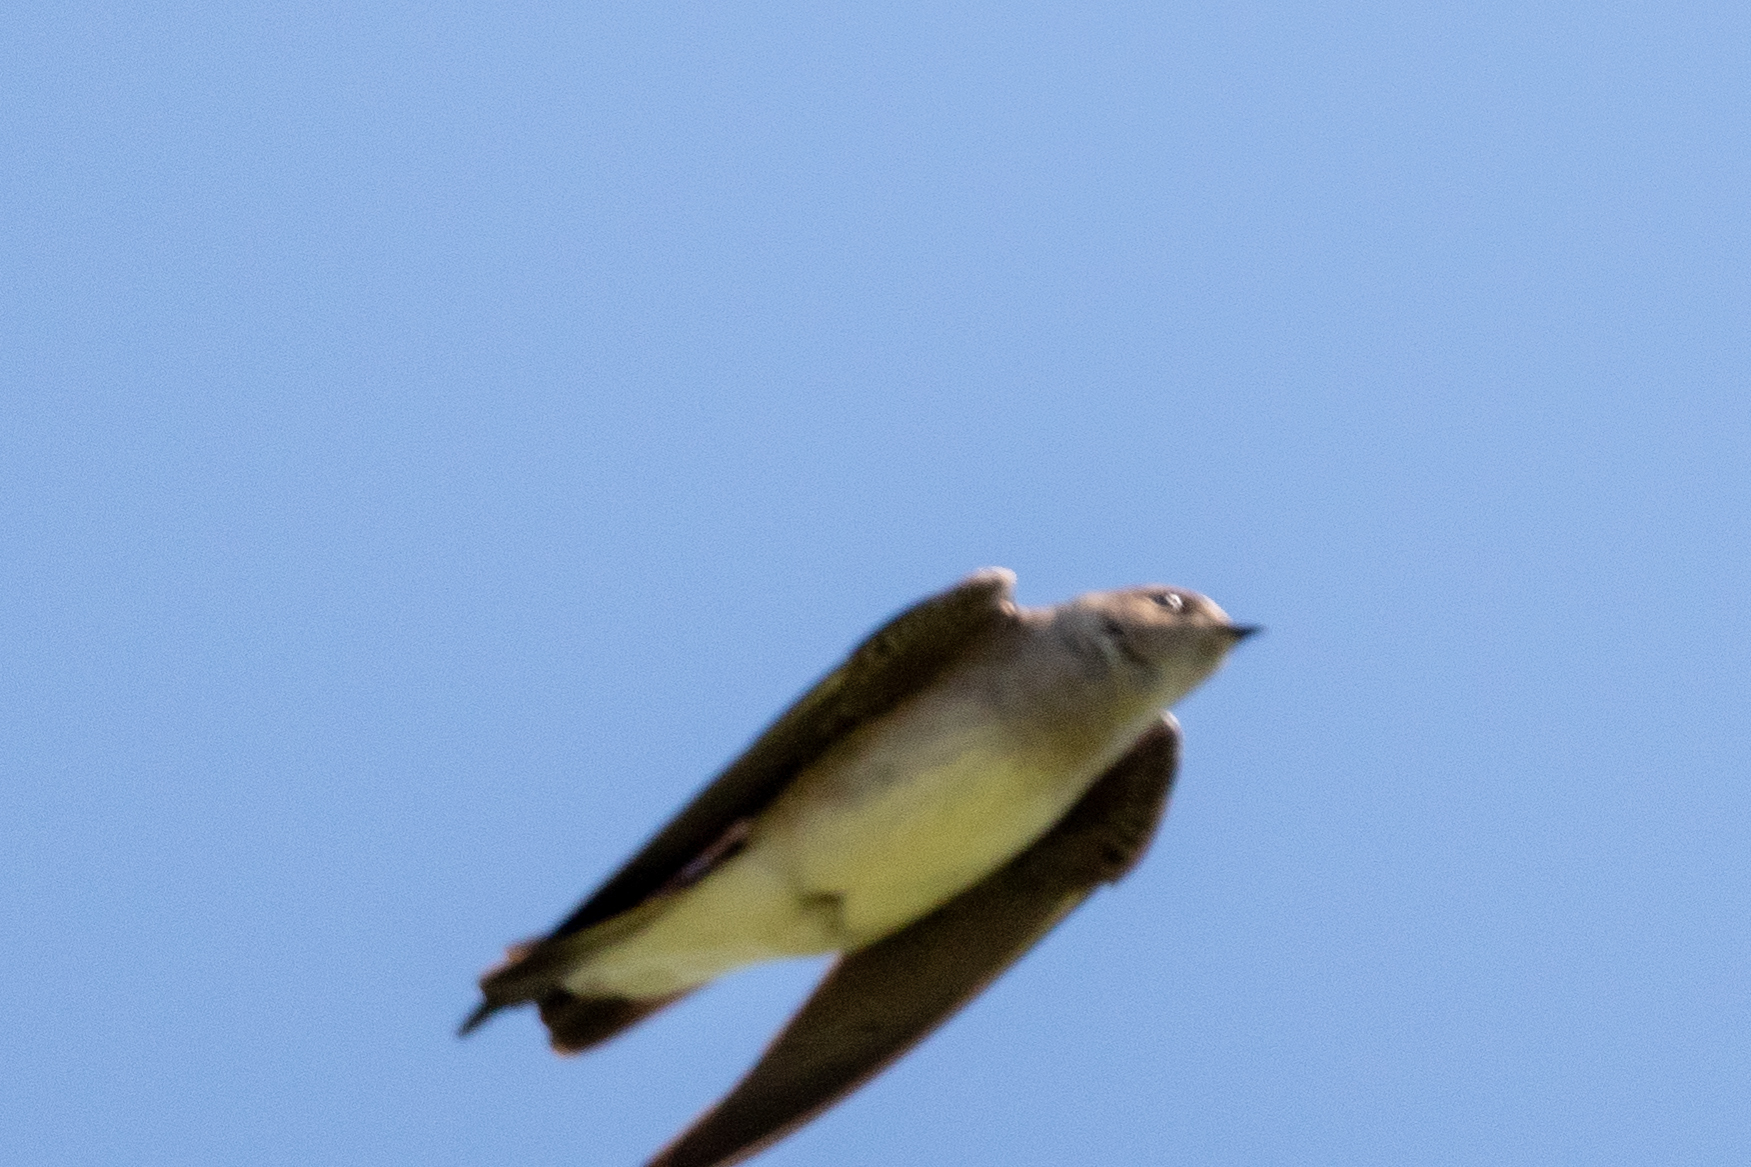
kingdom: Animalia
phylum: Chordata
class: Aves
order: Passeriformes
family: Hirundinidae
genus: Stelgidopteryx
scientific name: Stelgidopteryx serripennis
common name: Northern rough-winged swallow
